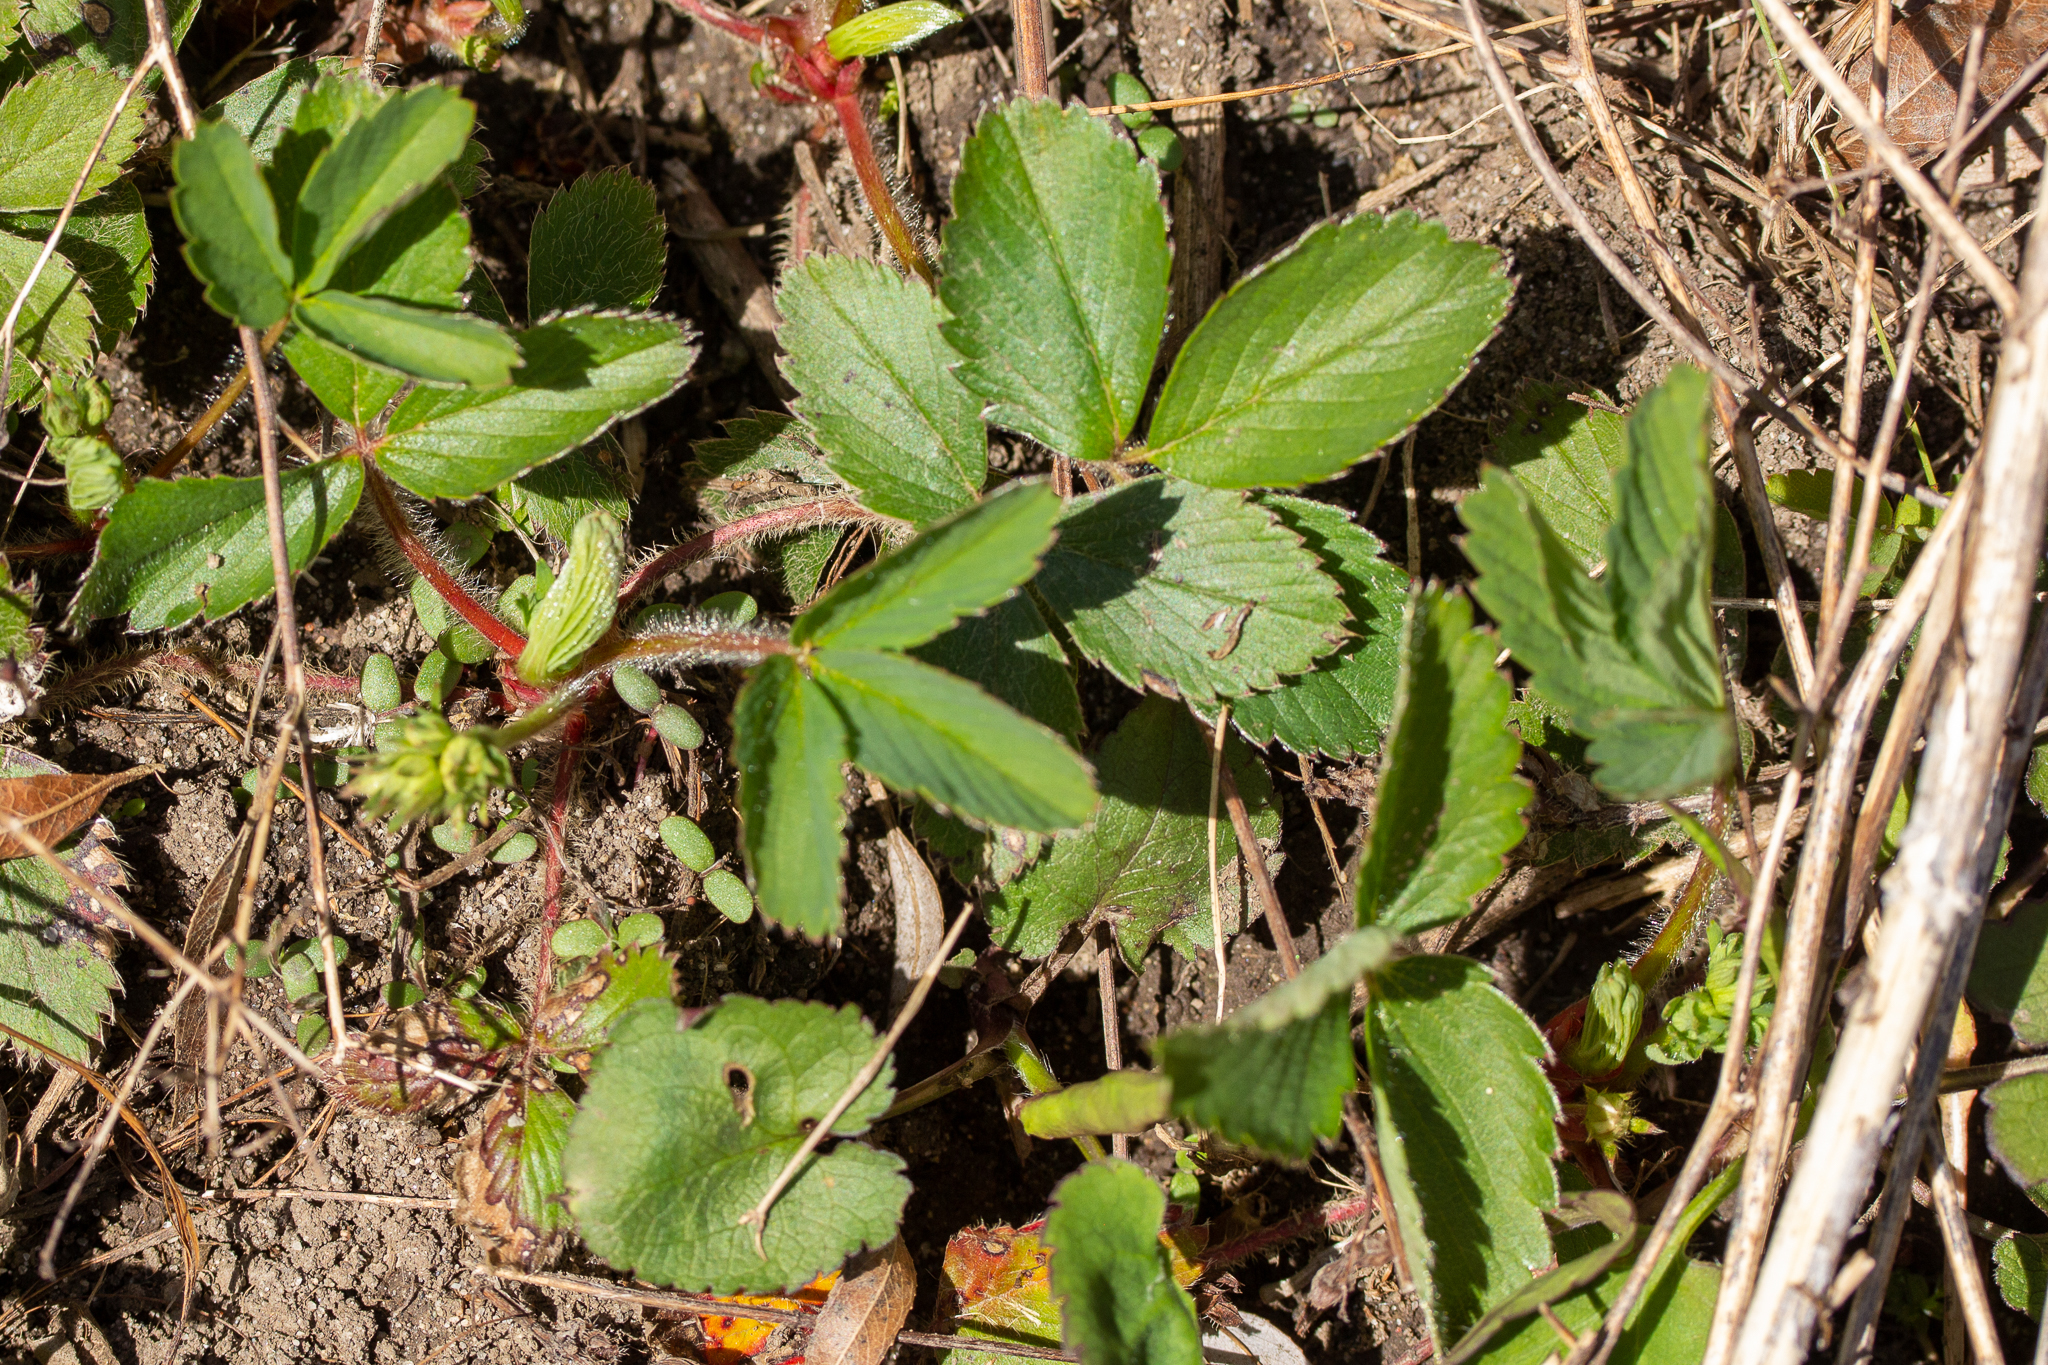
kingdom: Plantae
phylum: Tracheophyta
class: Magnoliopsida
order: Rosales
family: Rosaceae
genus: Fragaria
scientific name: Fragaria virginiana
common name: Thickleaved wild strawberry
